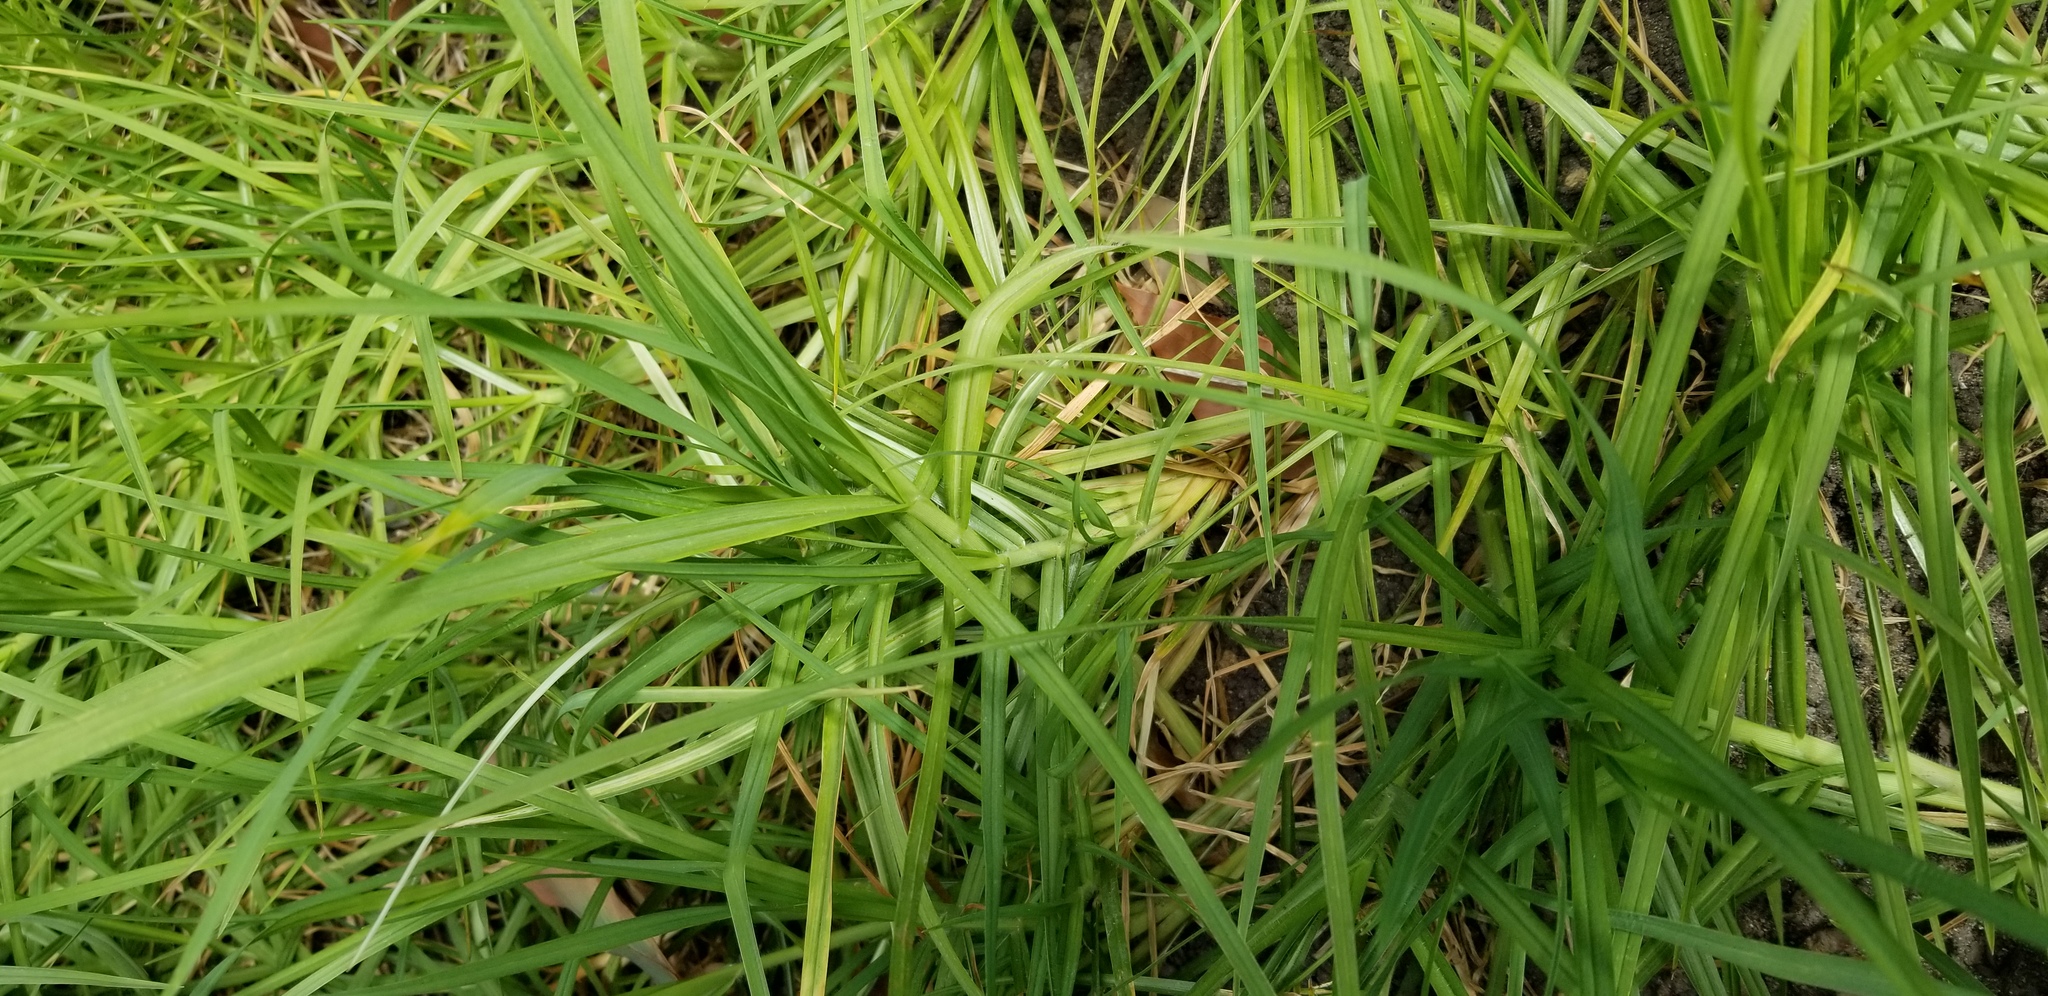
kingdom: Plantae
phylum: Tracheophyta
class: Liliopsida
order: Poales
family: Poaceae
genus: Cenchrus
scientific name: Cenchrus clandestinus
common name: Kikuyugrass
